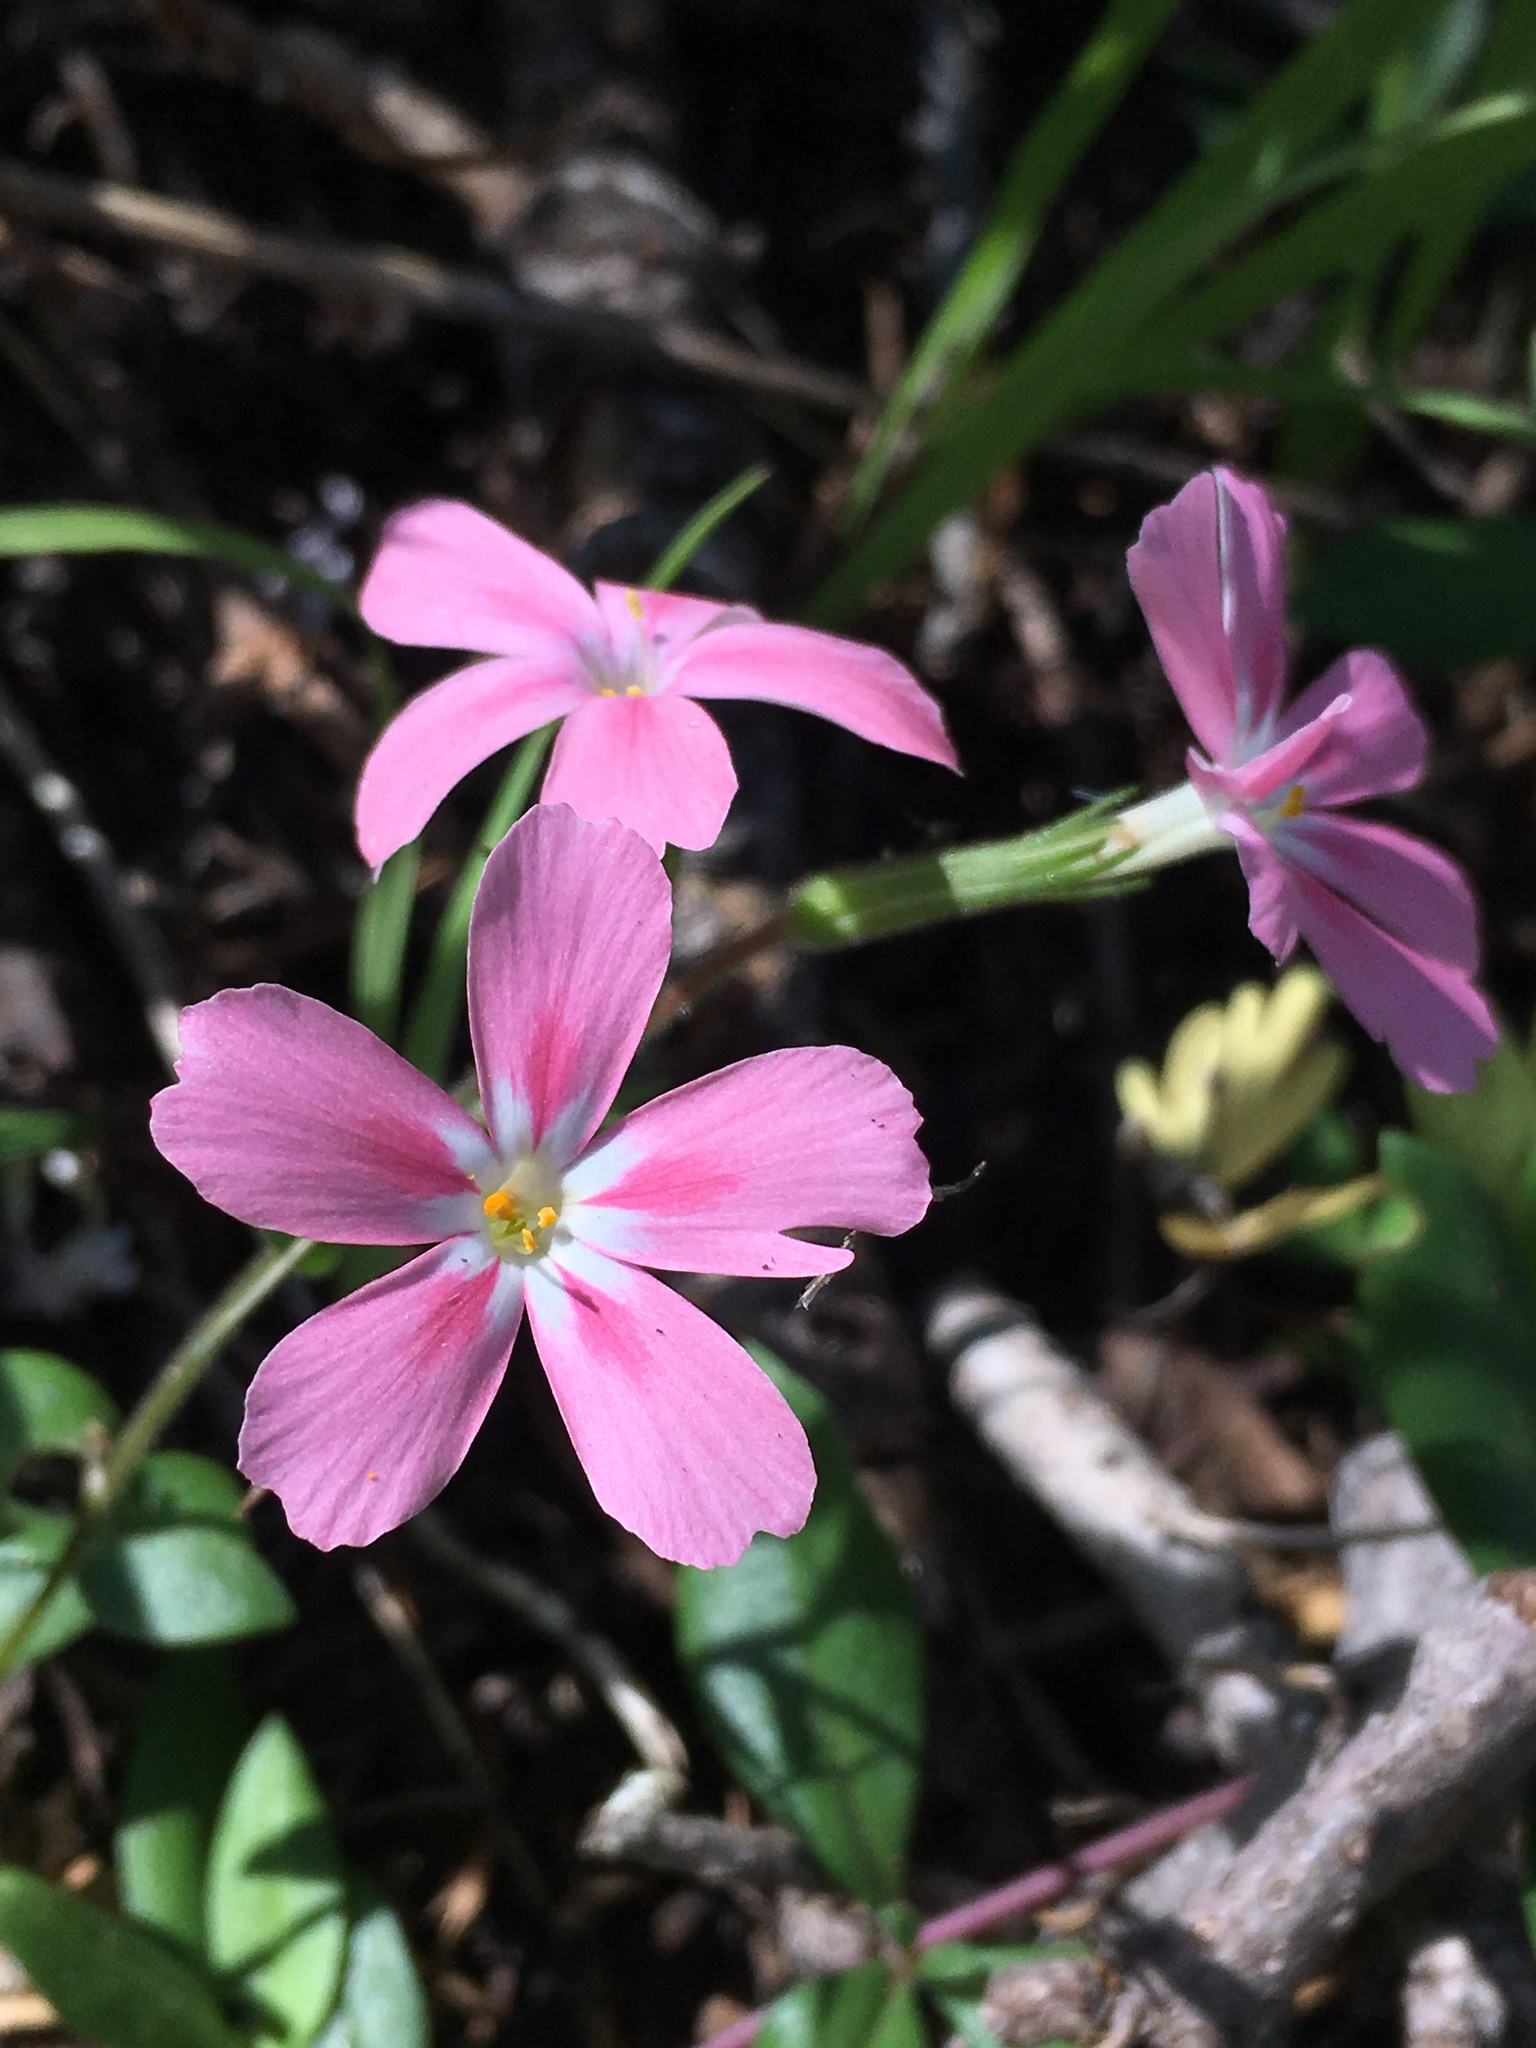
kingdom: Plantae
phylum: Tracheophyta
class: Magnoliopsida
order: Ericales
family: Polemoniaceae
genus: Phlox
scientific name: Phlox adsurgens
